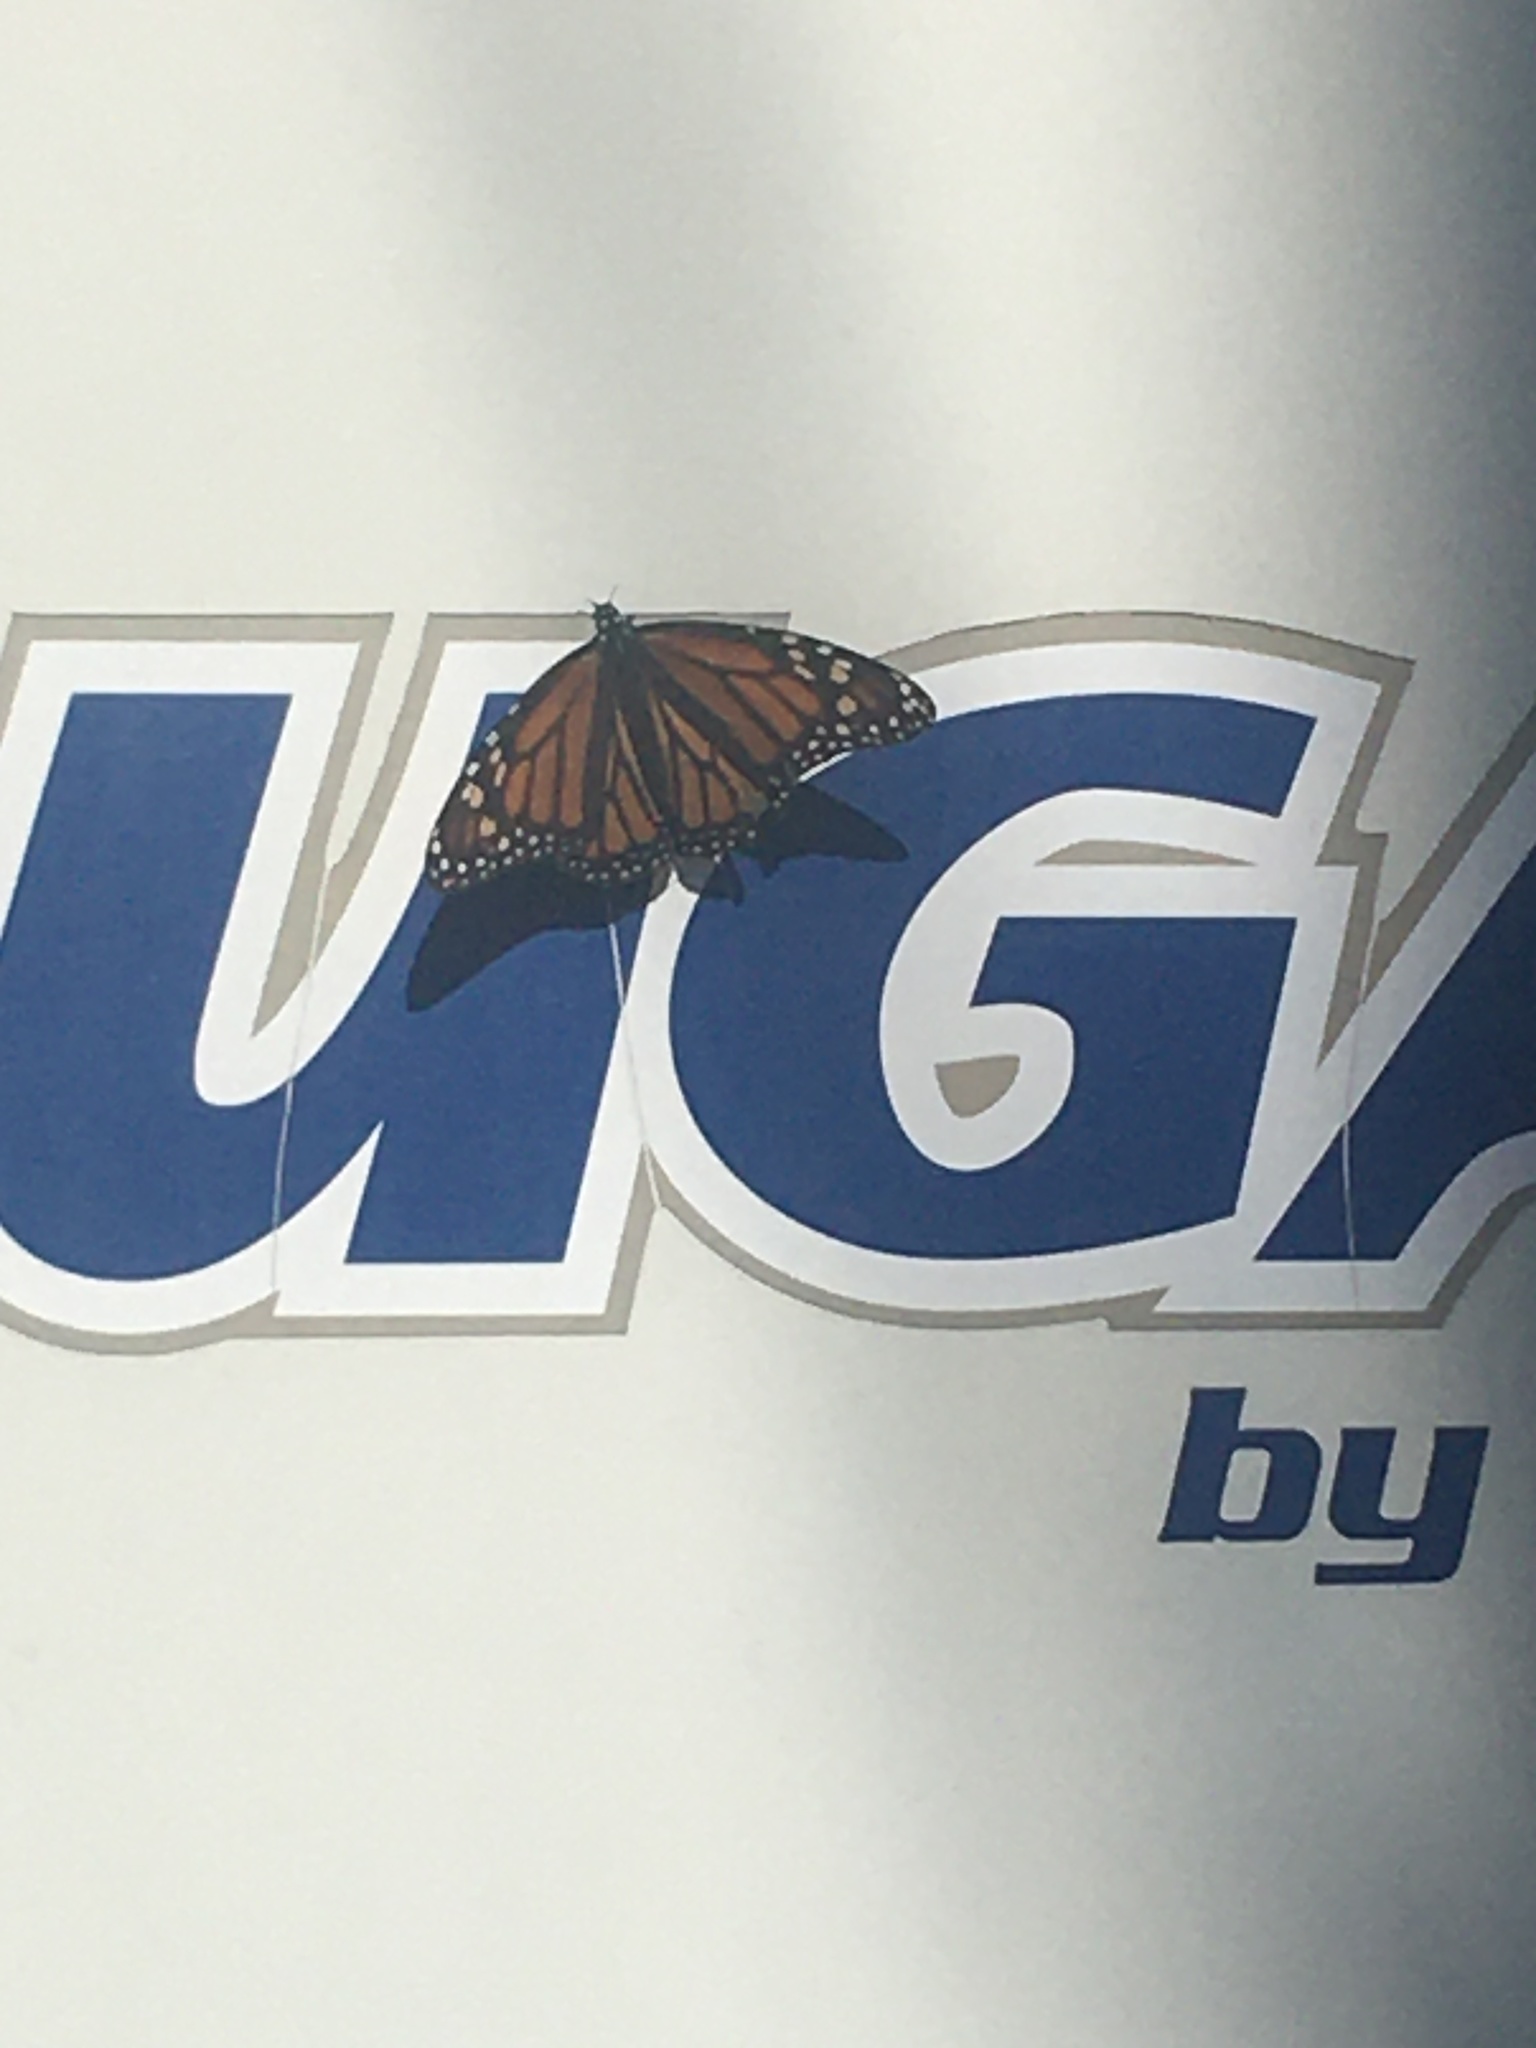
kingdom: Animalia
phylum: Arthropoda
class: Insecta
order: Lepidoptera
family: Nymphalidae
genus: Danaus
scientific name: Danaus plexippus
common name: Monarch
